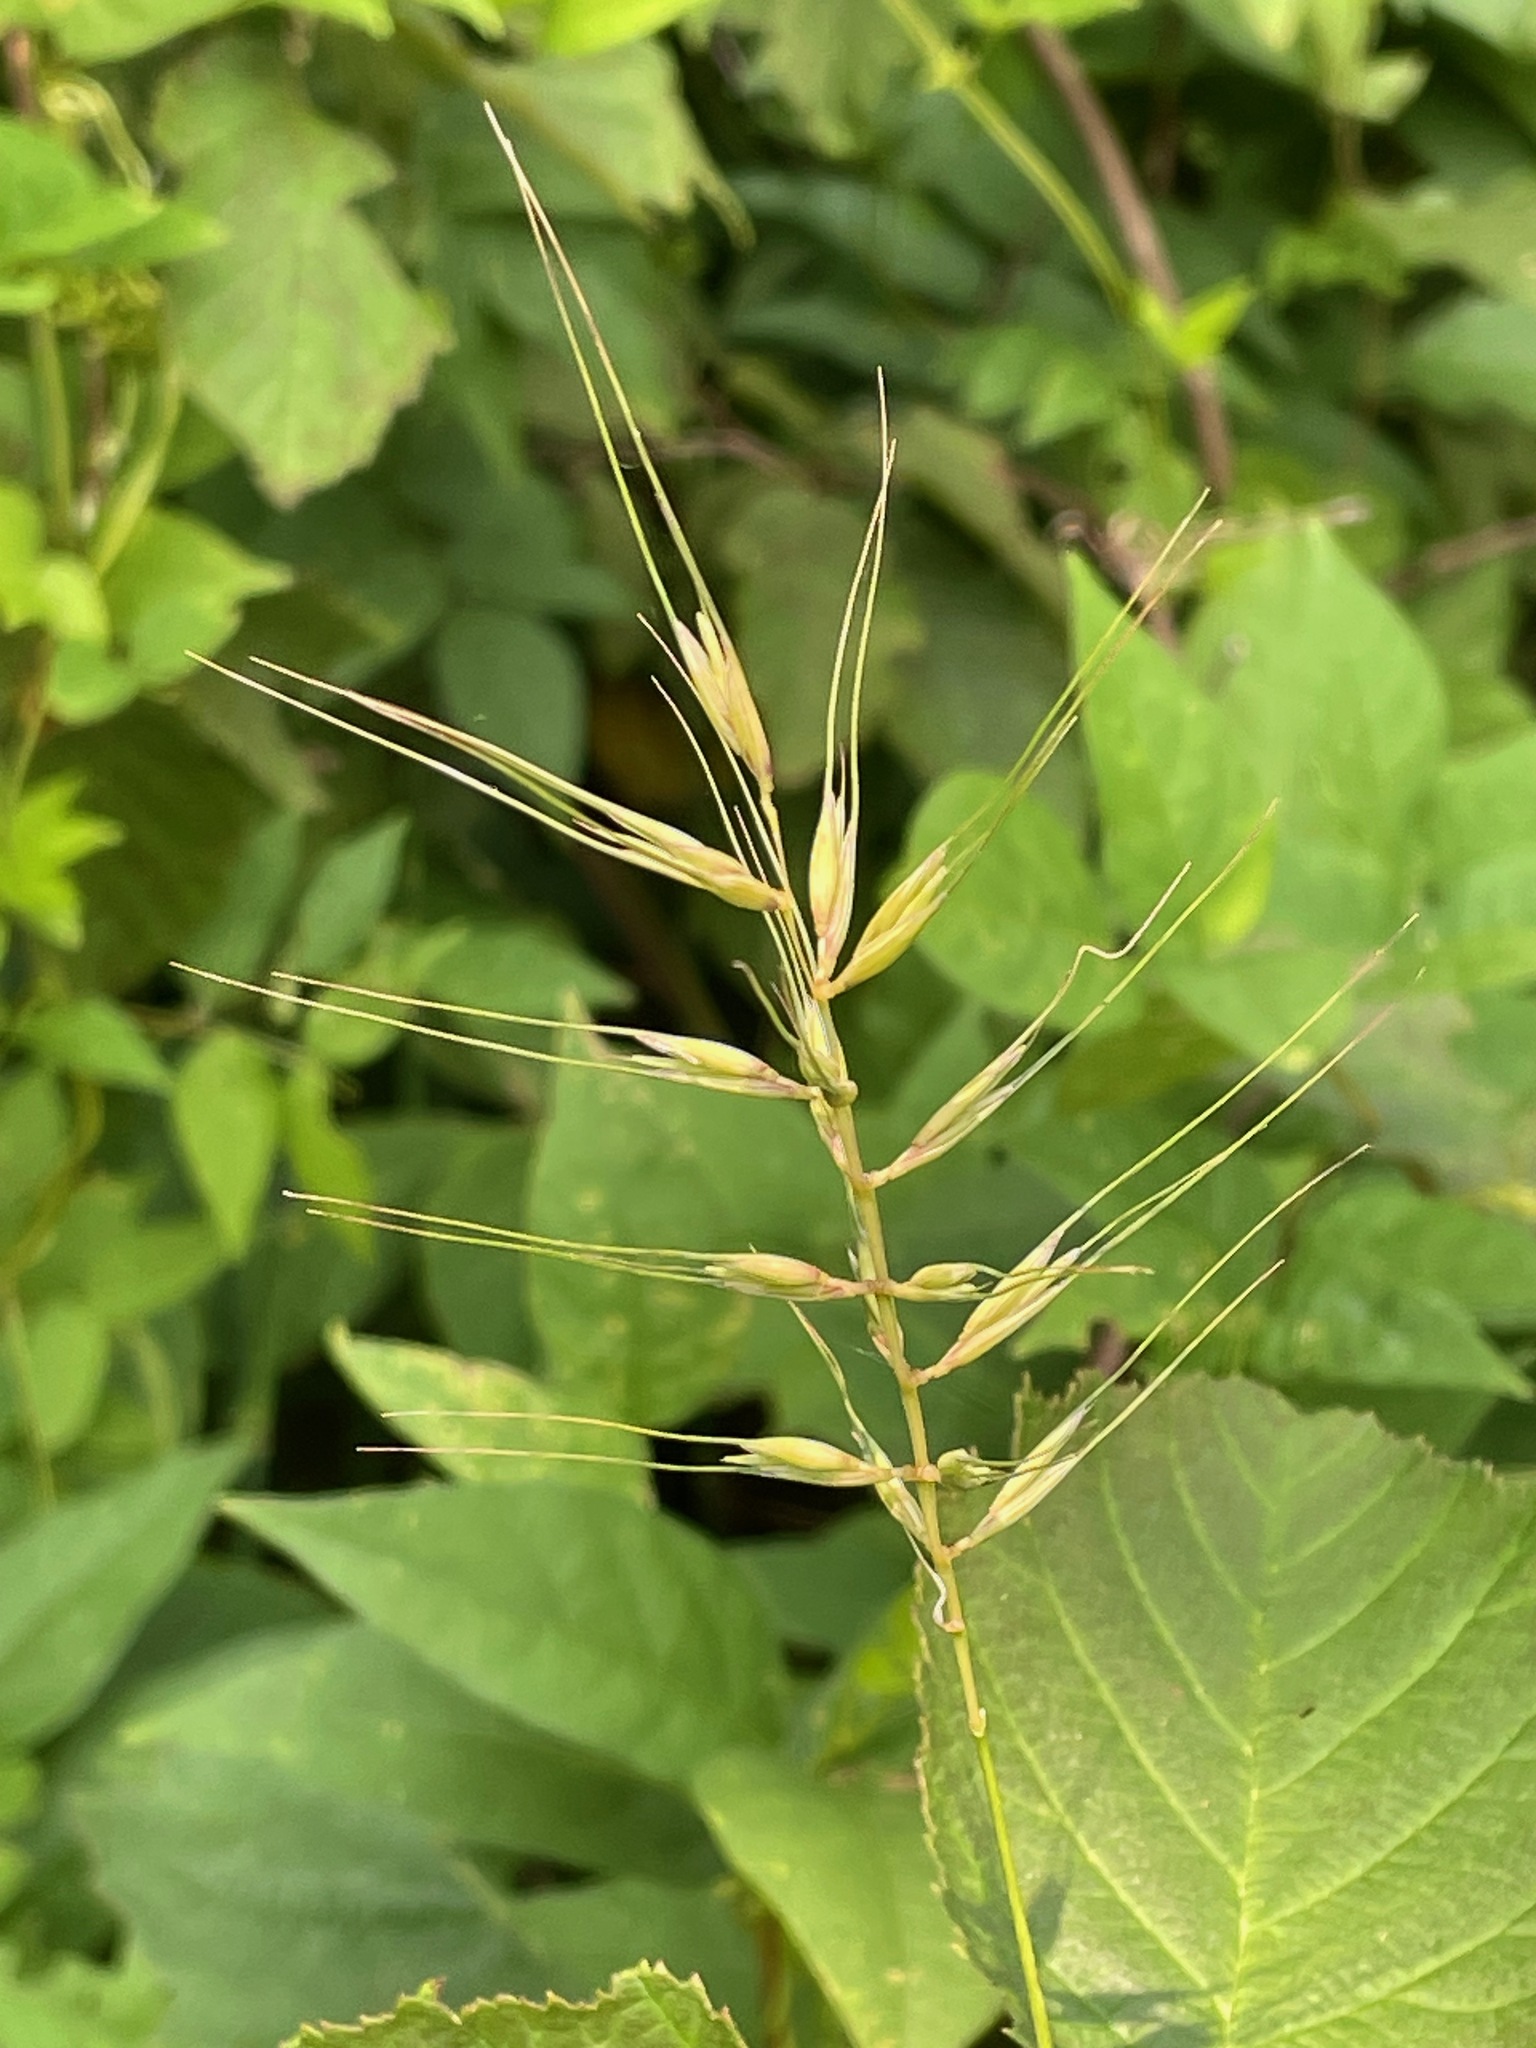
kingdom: Plantae
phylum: Tracheophyta
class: Liliopsida
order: Poales
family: Poaceae
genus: Elymus
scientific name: Elymus hystrix
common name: Bottlebrush grass
